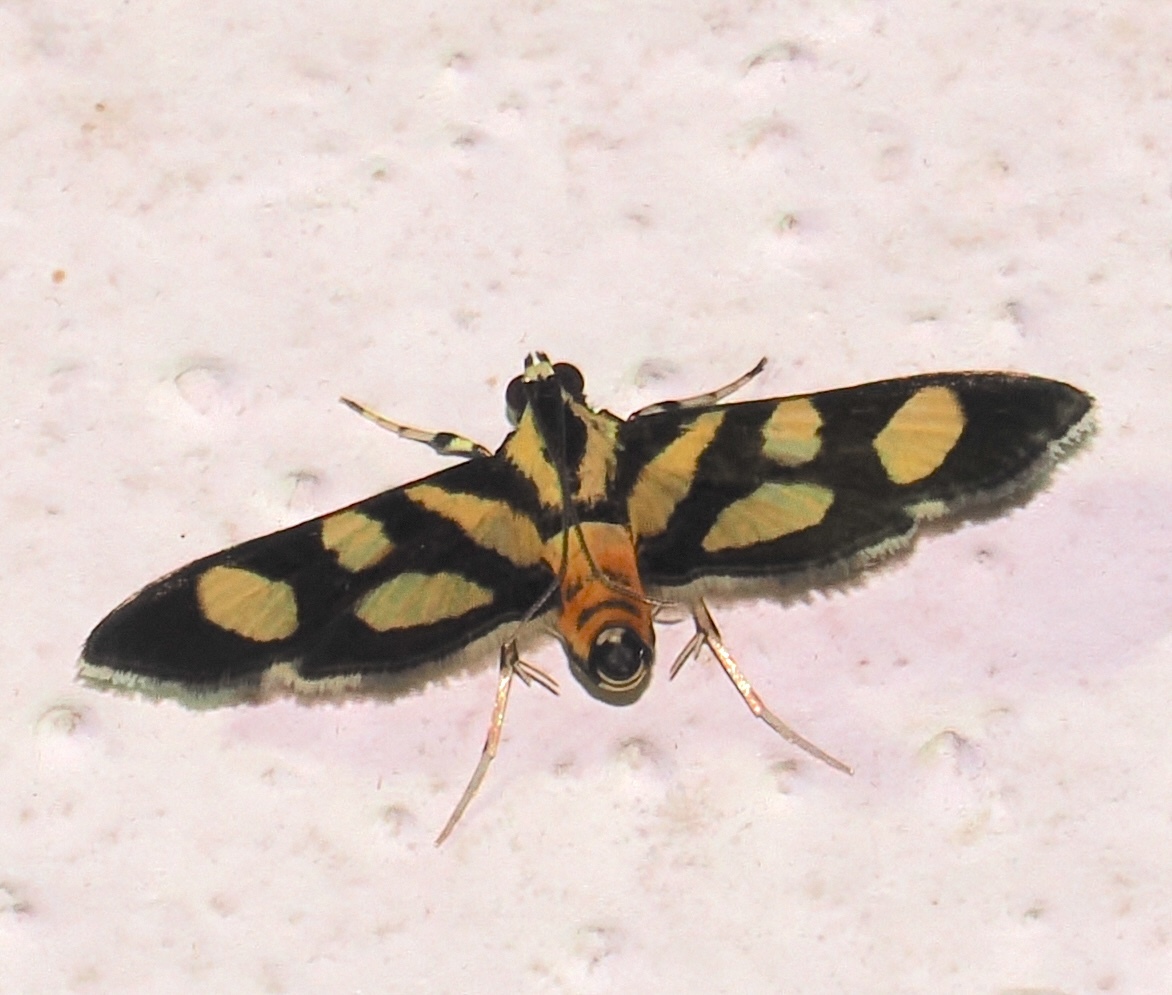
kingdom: Animalia
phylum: Arthropoda
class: Insecta
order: Lepidoptera
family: Crambidae
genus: Syngamia
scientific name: Syngamia florella
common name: Orange-spotted flower moth
